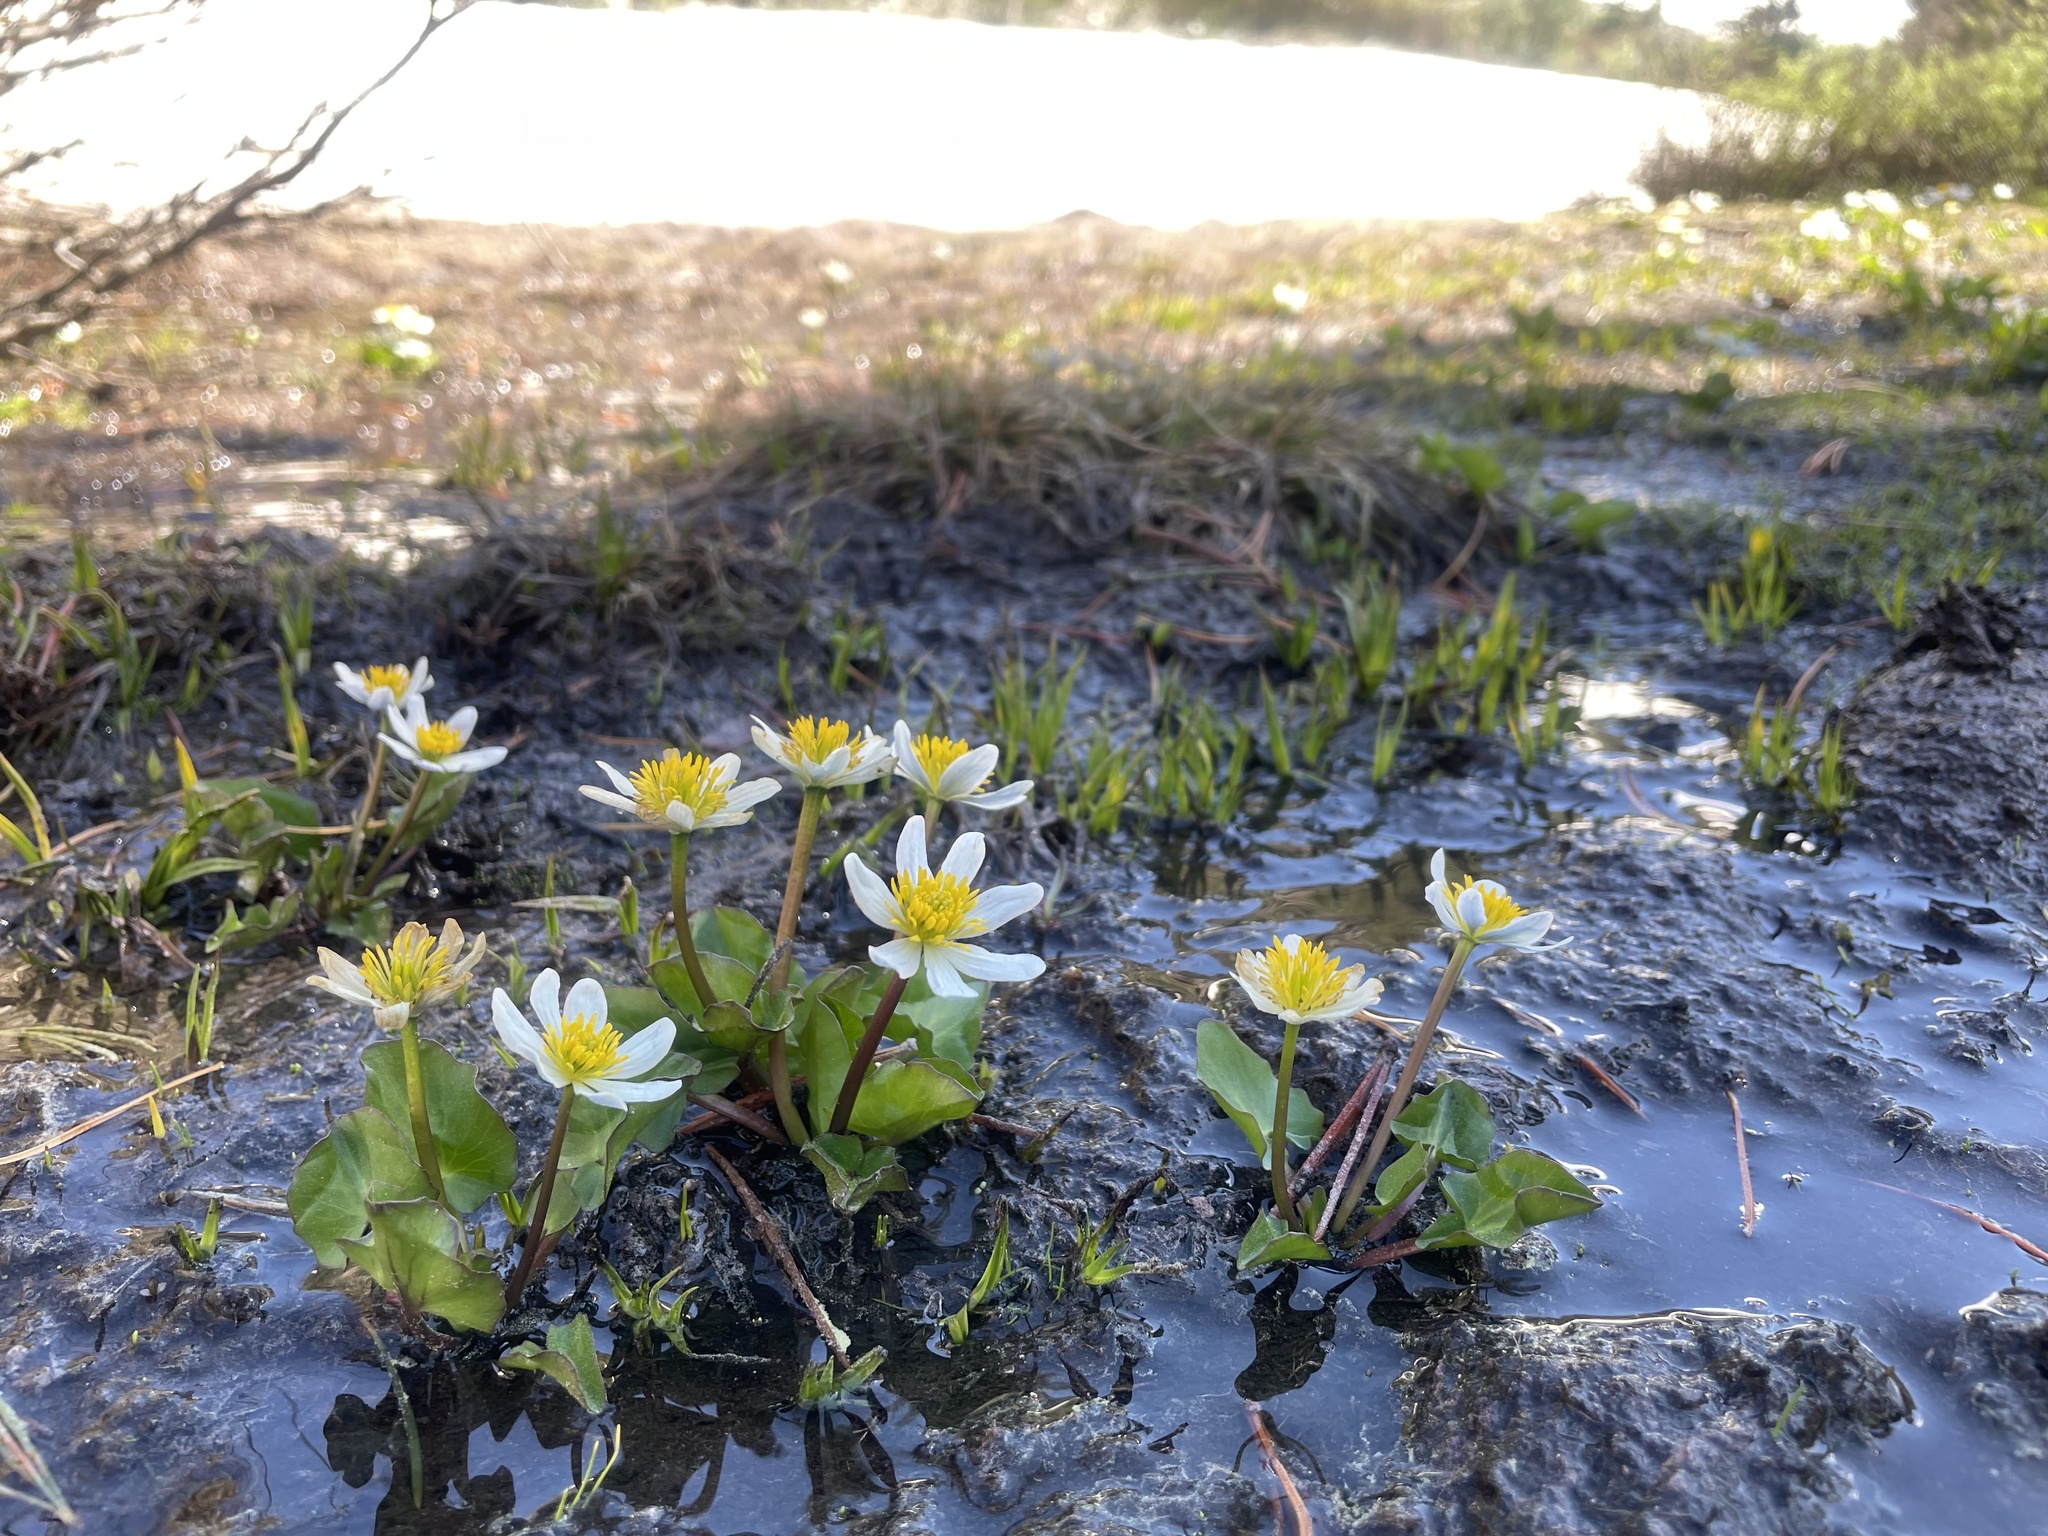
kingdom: Plantae
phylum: Tracheophyta
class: Magnoliopsida
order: Ranunculales
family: Ranunculaceae
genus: Caltha
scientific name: Caltha leptosepala
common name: Elkslip
